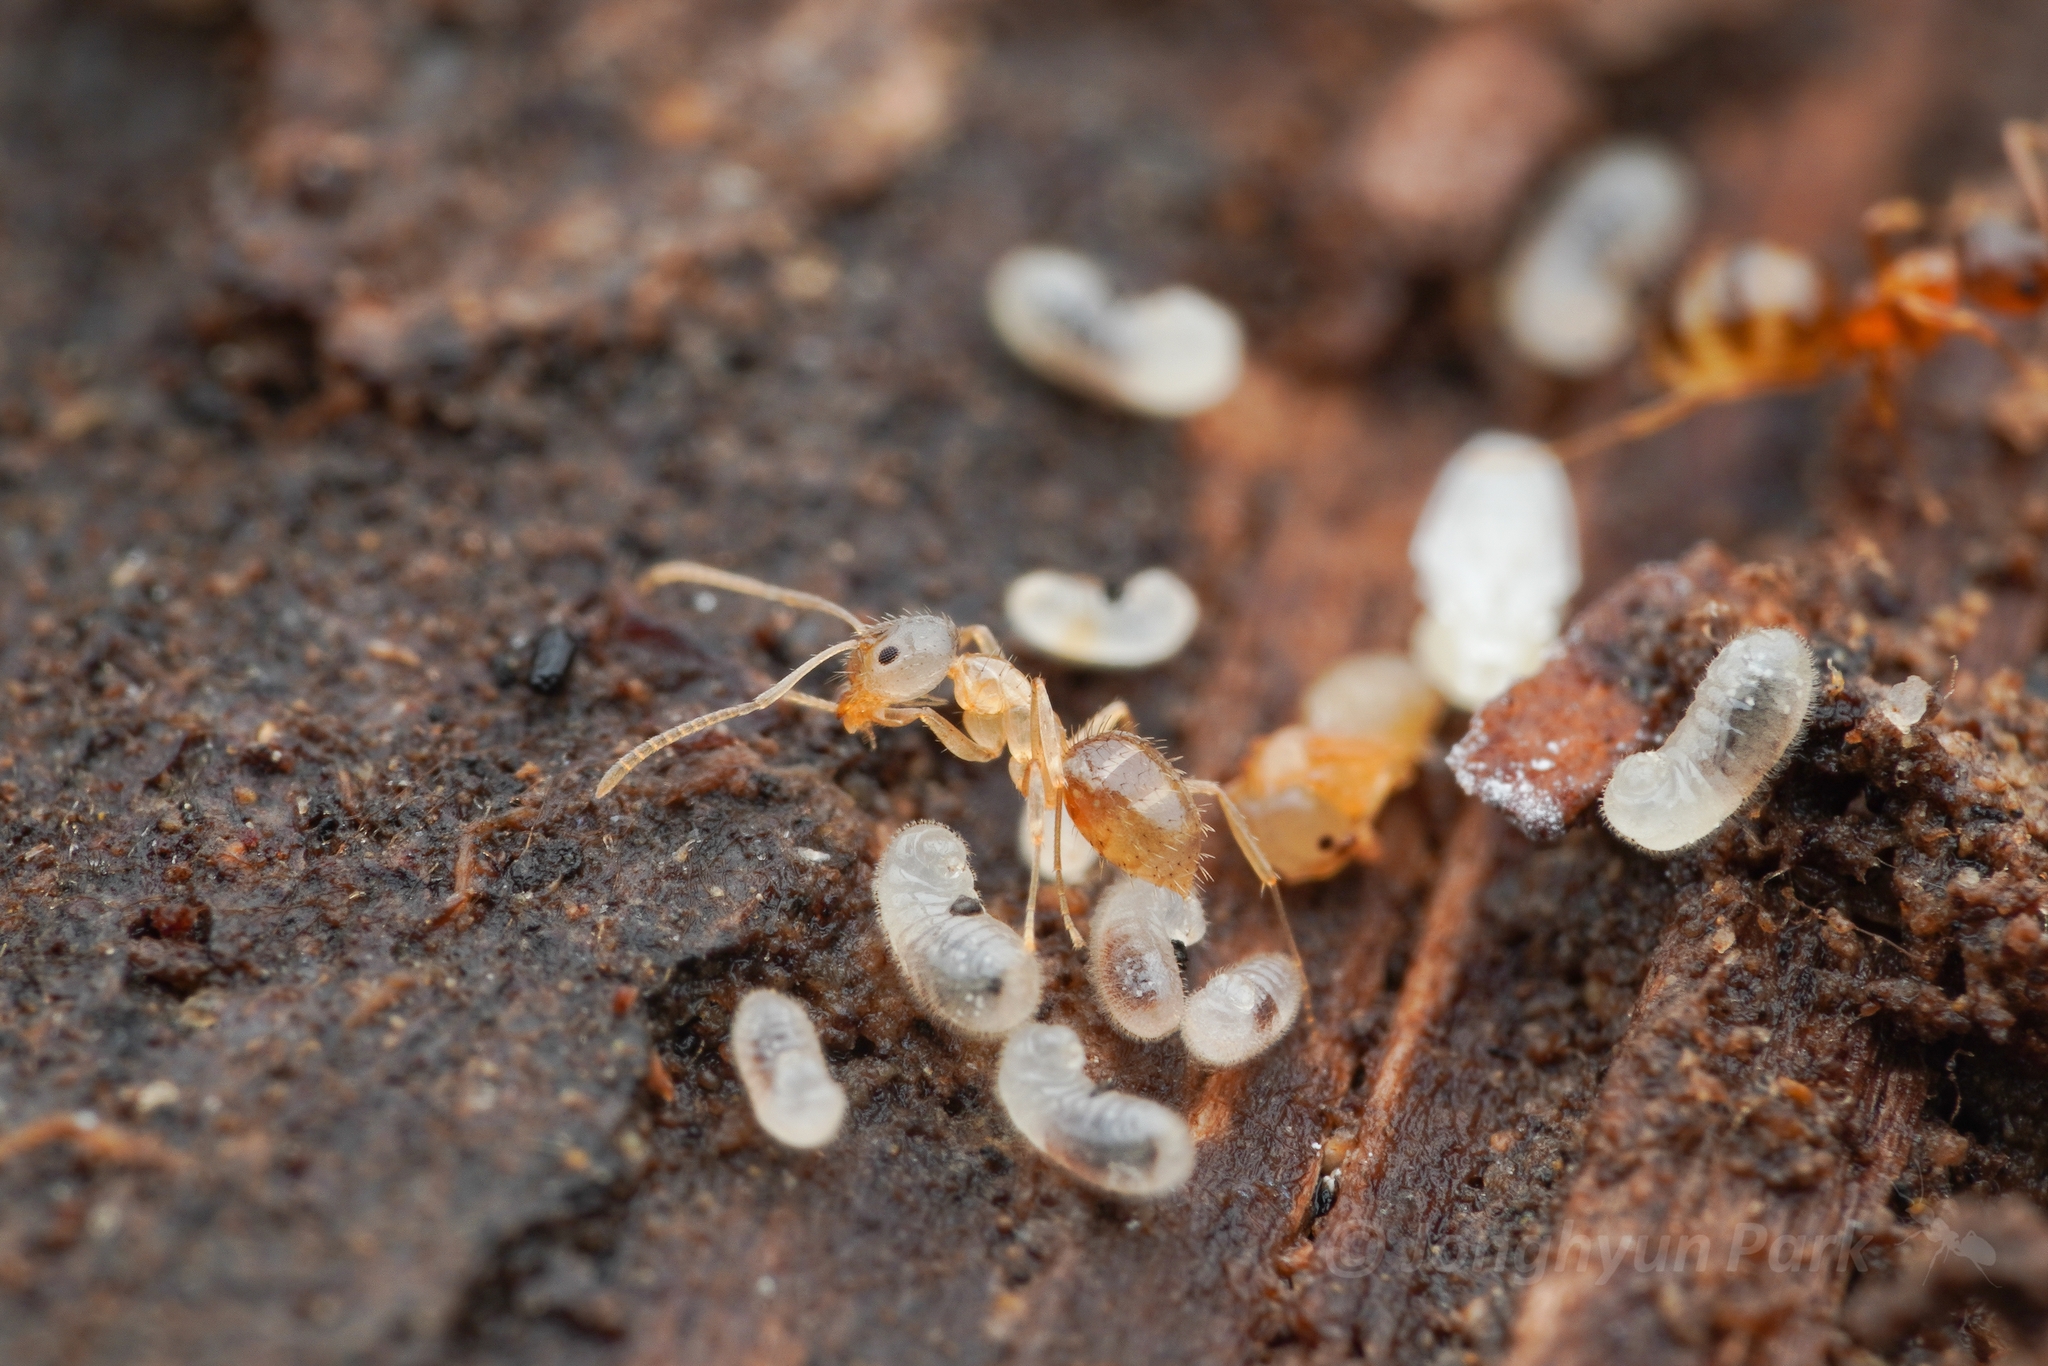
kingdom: Animalia
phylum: Arthropoda
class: Insecta
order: Hymenoptera
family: Formicidae
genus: Paratrechina
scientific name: Paratrechina flavipes
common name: Eastern asian formicine ant
